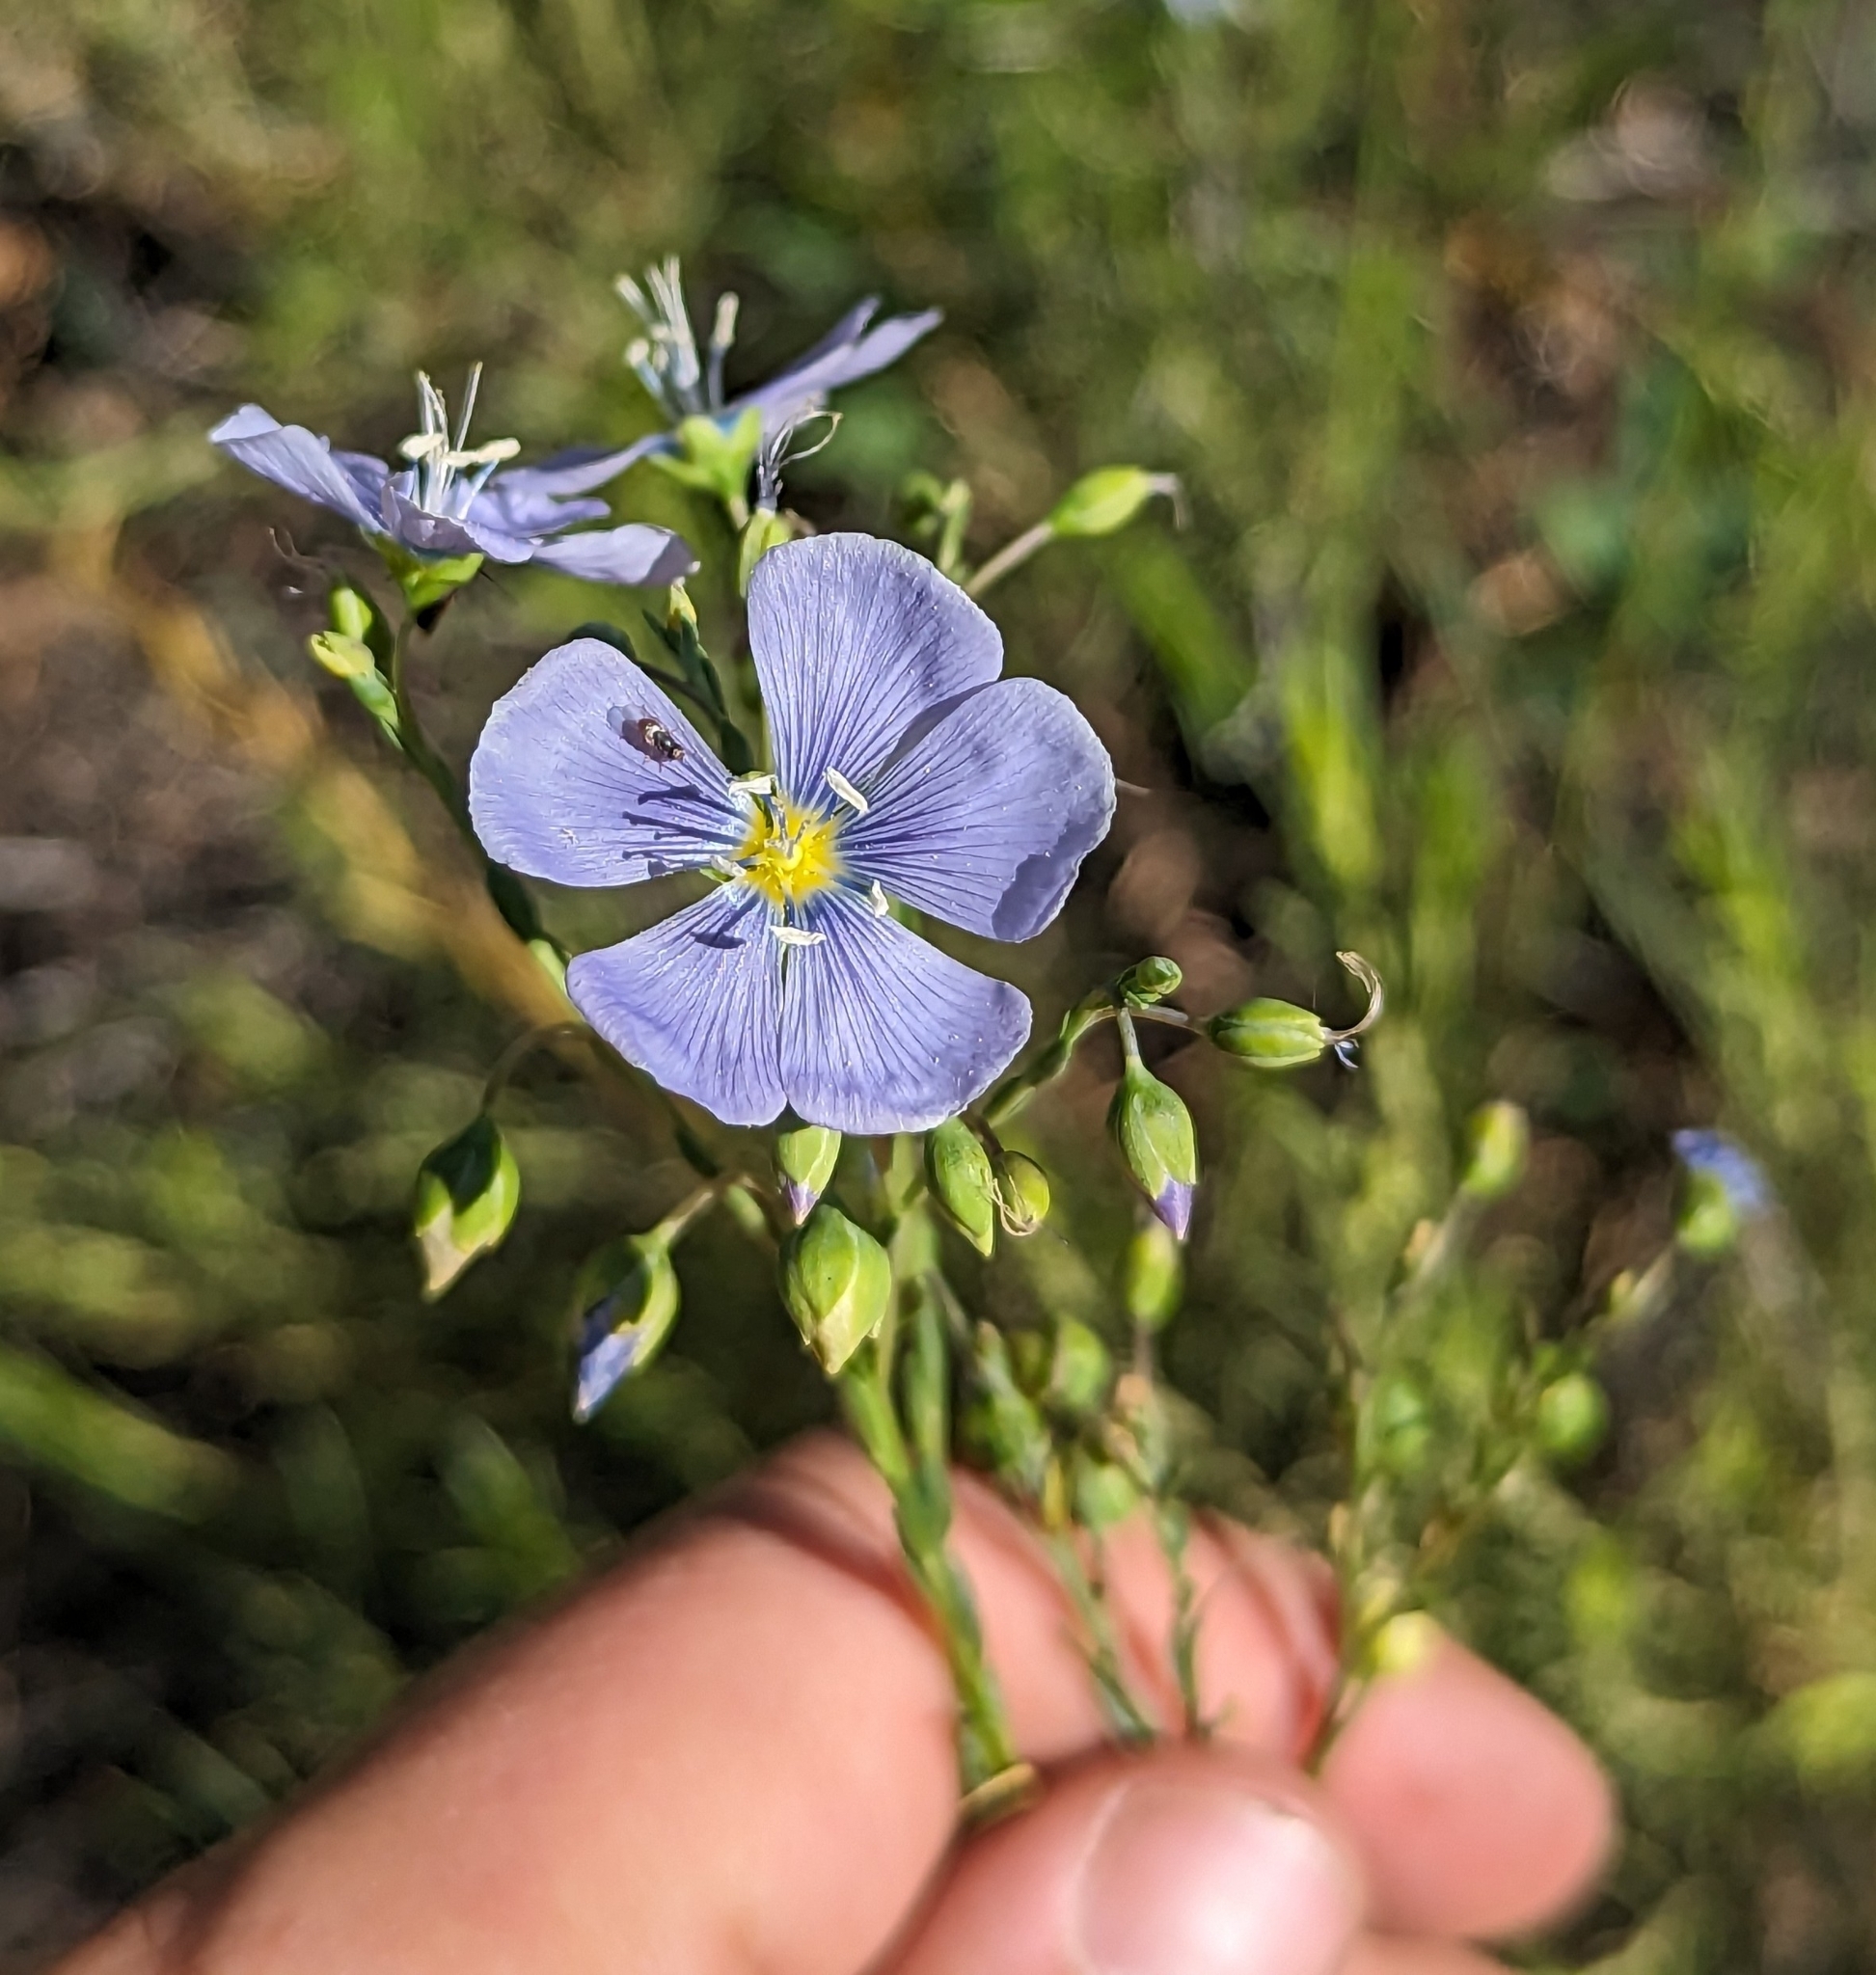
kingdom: Plantae
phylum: Tracheophyta
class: Magnoliopsida
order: Malpighiales
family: Linaceae
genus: Linum
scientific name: Linum lewisii
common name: Prairie flax
